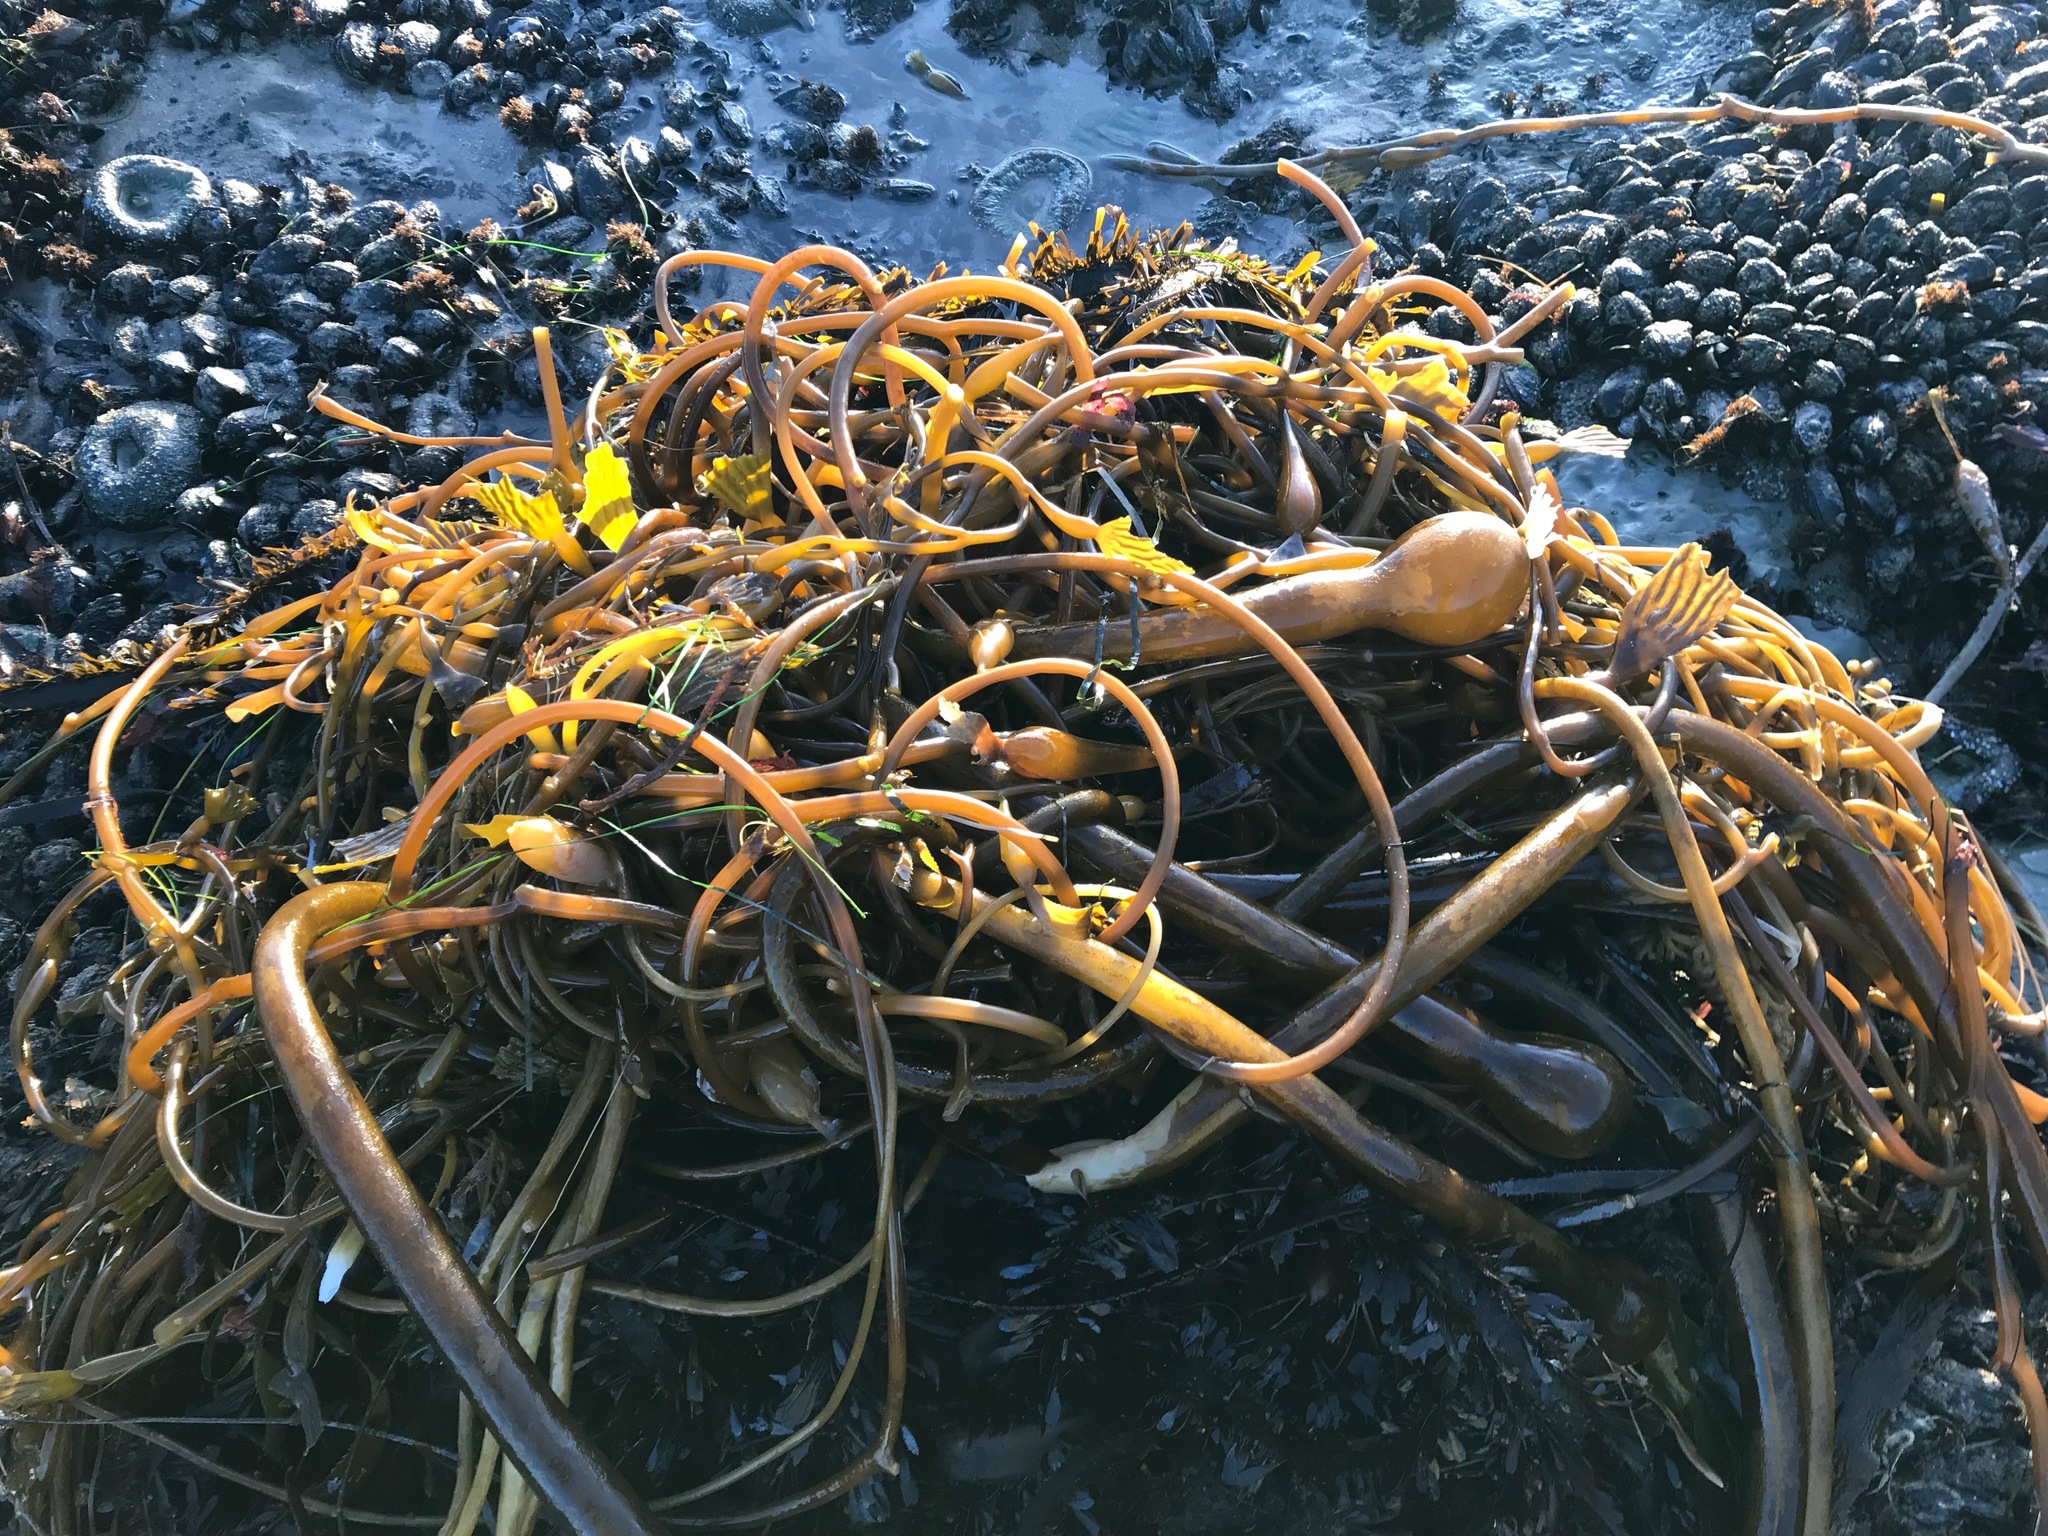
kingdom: Chromista
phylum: Ochrophyta
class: Phaeophyceae
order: Laminariales
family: Laminariaceae
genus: Nereocystis
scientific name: Nereocystis luetkeana
